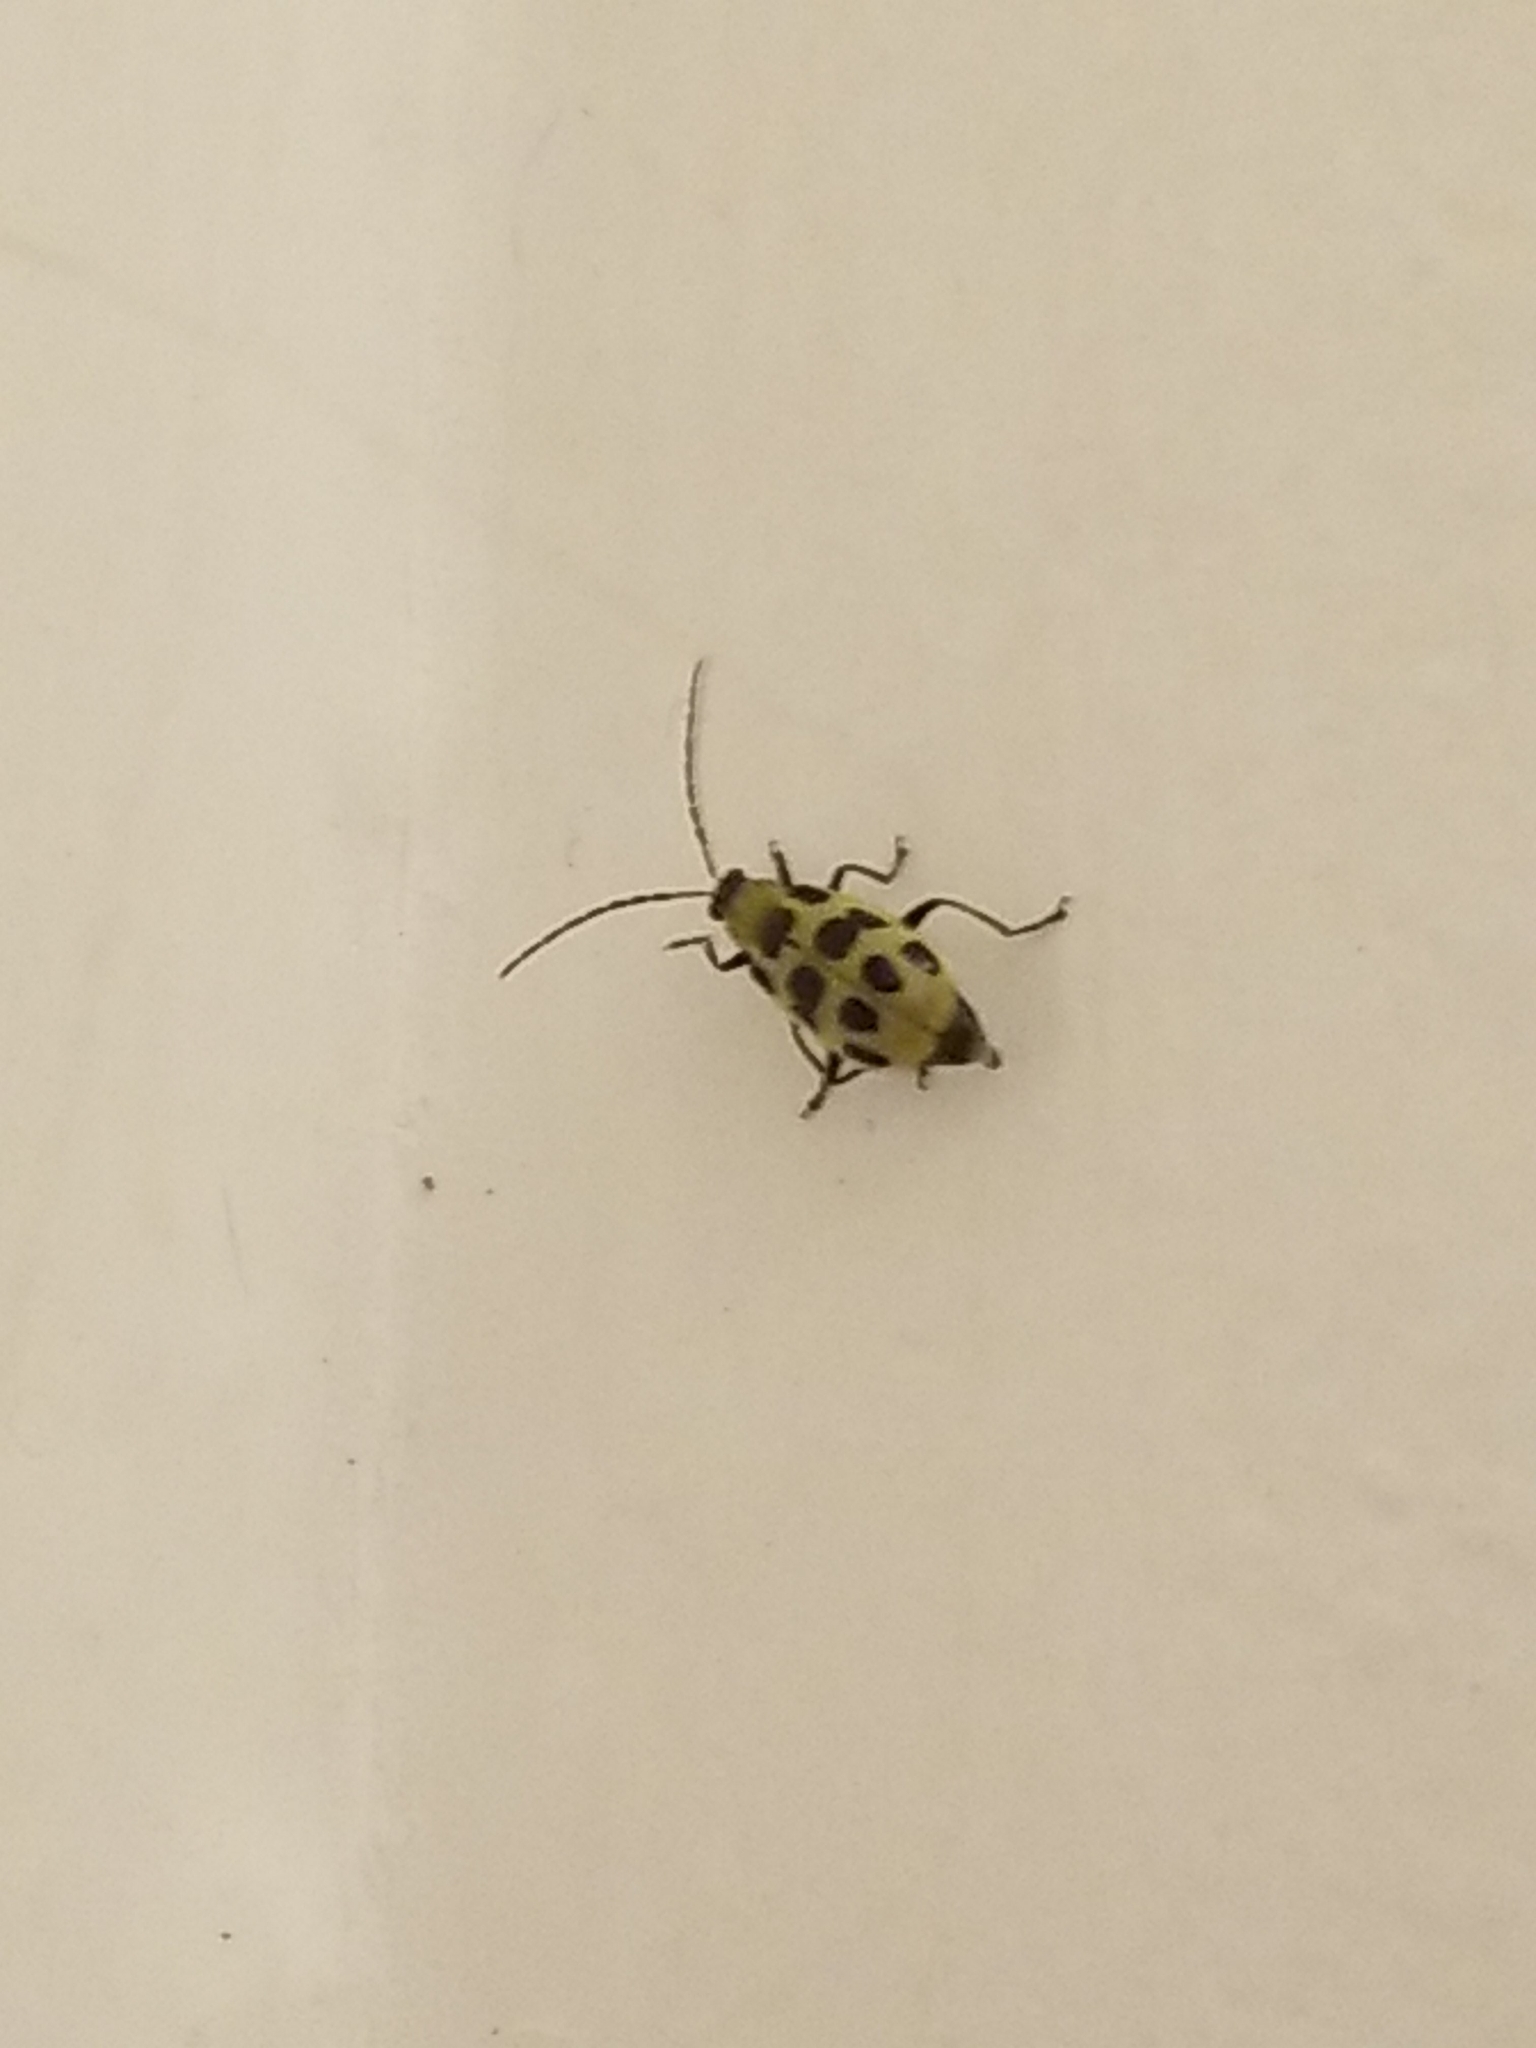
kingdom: Animalia
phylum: Arthropoda
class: Insecta
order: Coleoptera
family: Chrysomelidae
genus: Diabrotica
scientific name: Diabrotica undecimpunctata
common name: Spotted cucumber beetle
